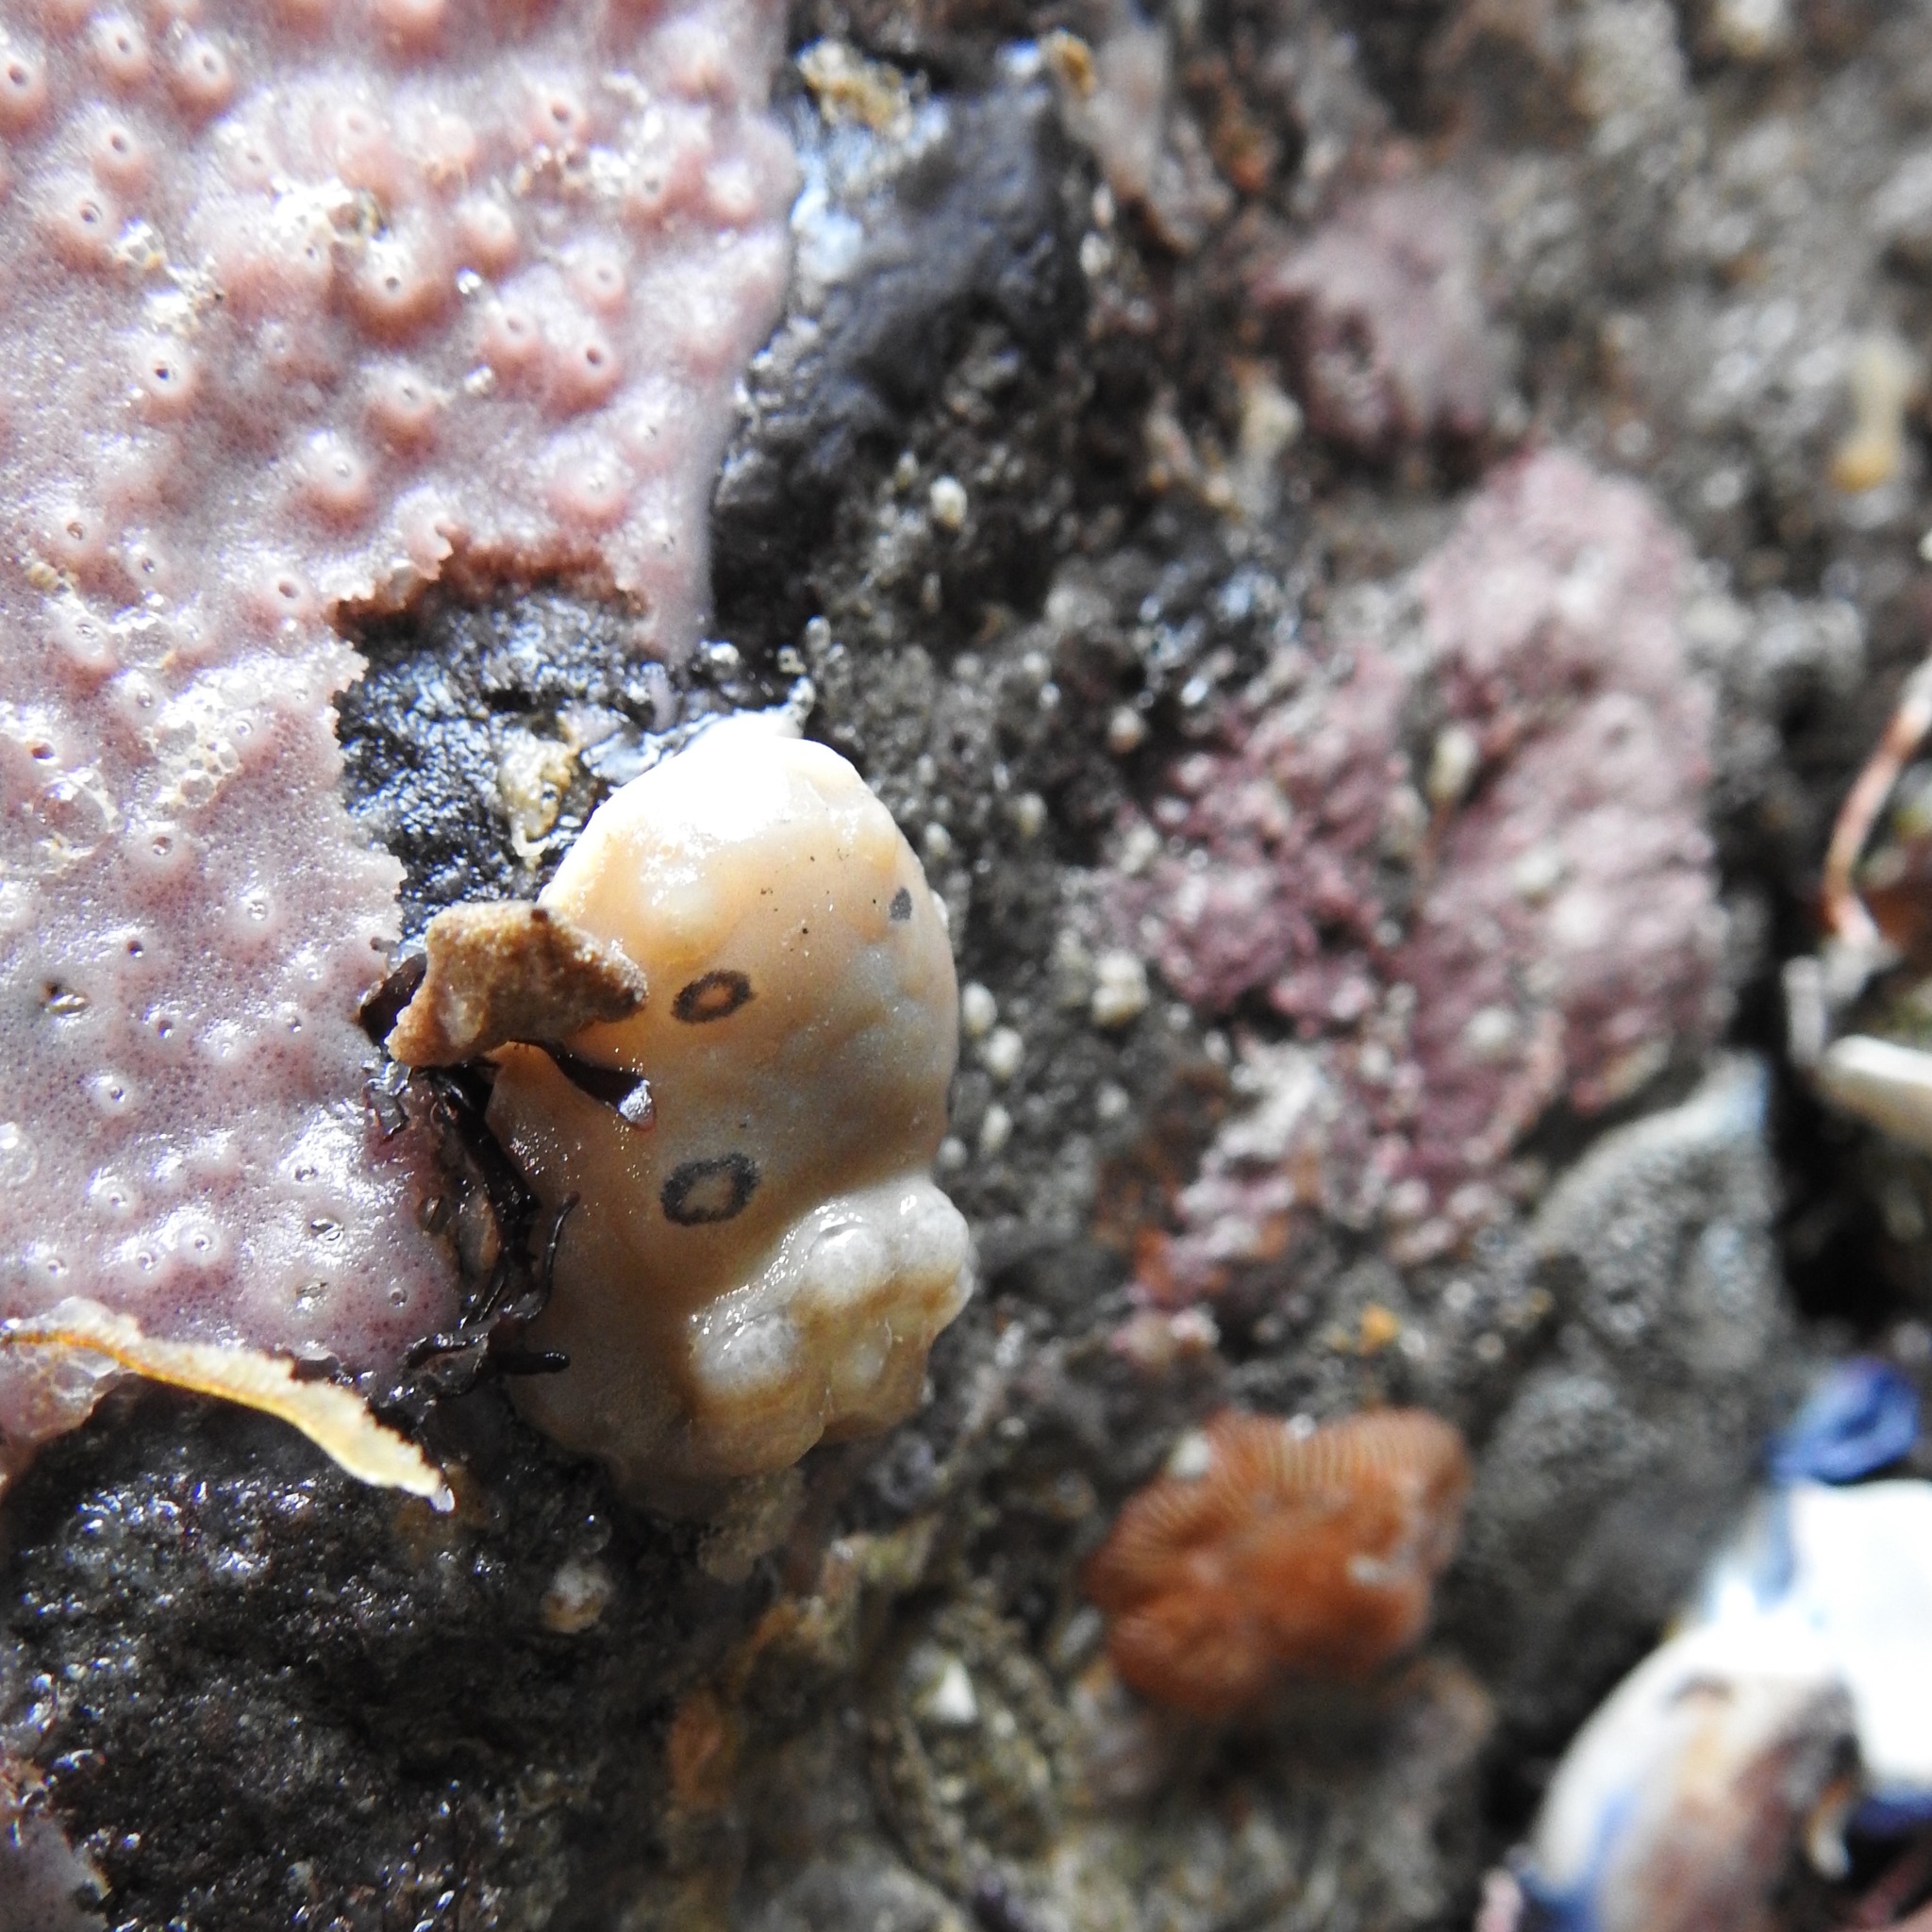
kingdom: Animalia
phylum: Mollusca
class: Gastropoda
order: Nudibranchia
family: Discodorididae
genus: Diaulula
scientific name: Diaulula sandiegensis
